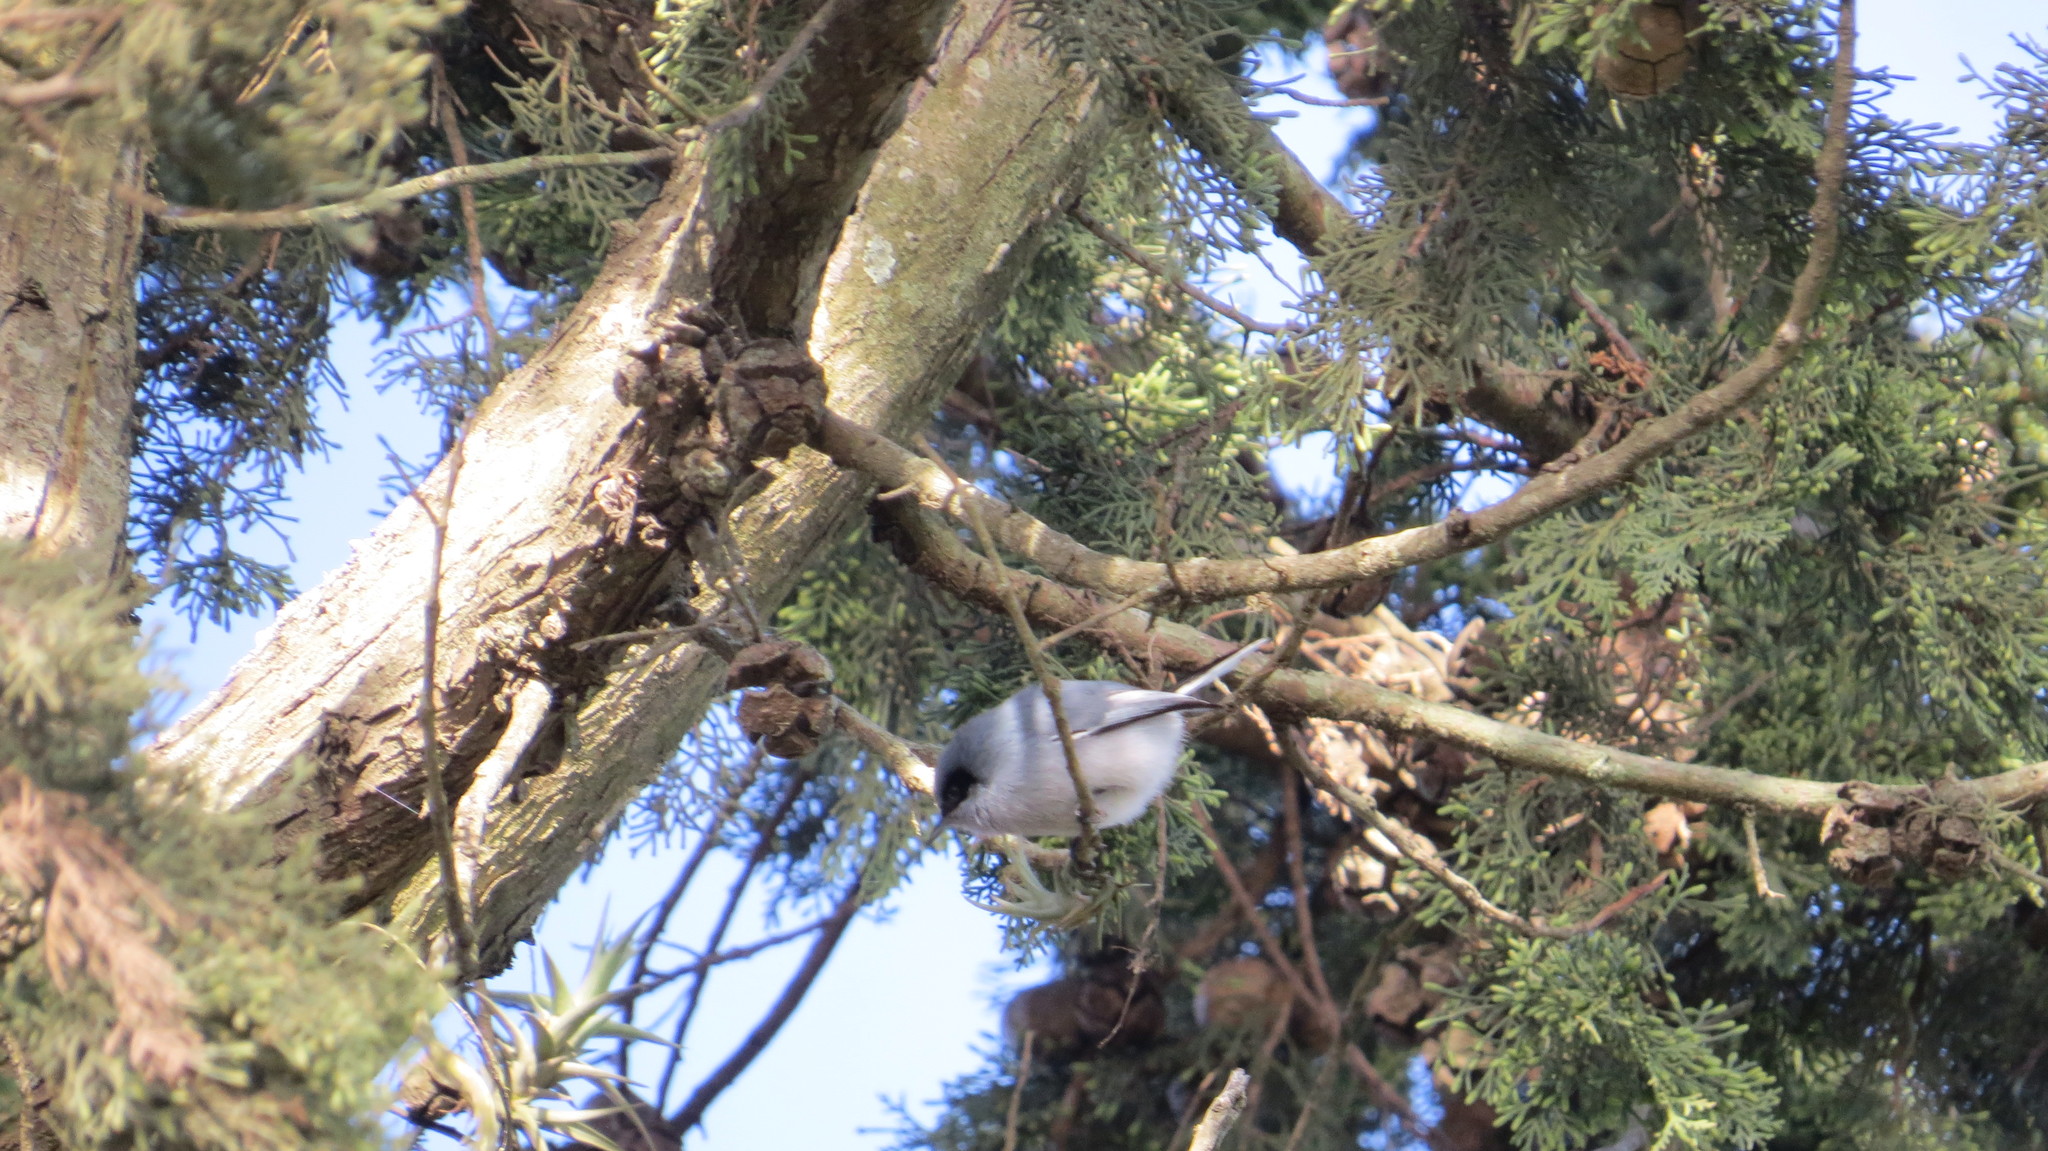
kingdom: Animalia
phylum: Chordata
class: Aves
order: Passeriformes
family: Polioptilidae
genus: Polioptila
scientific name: Polioptila dumicola
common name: Masked gnatcatcher
